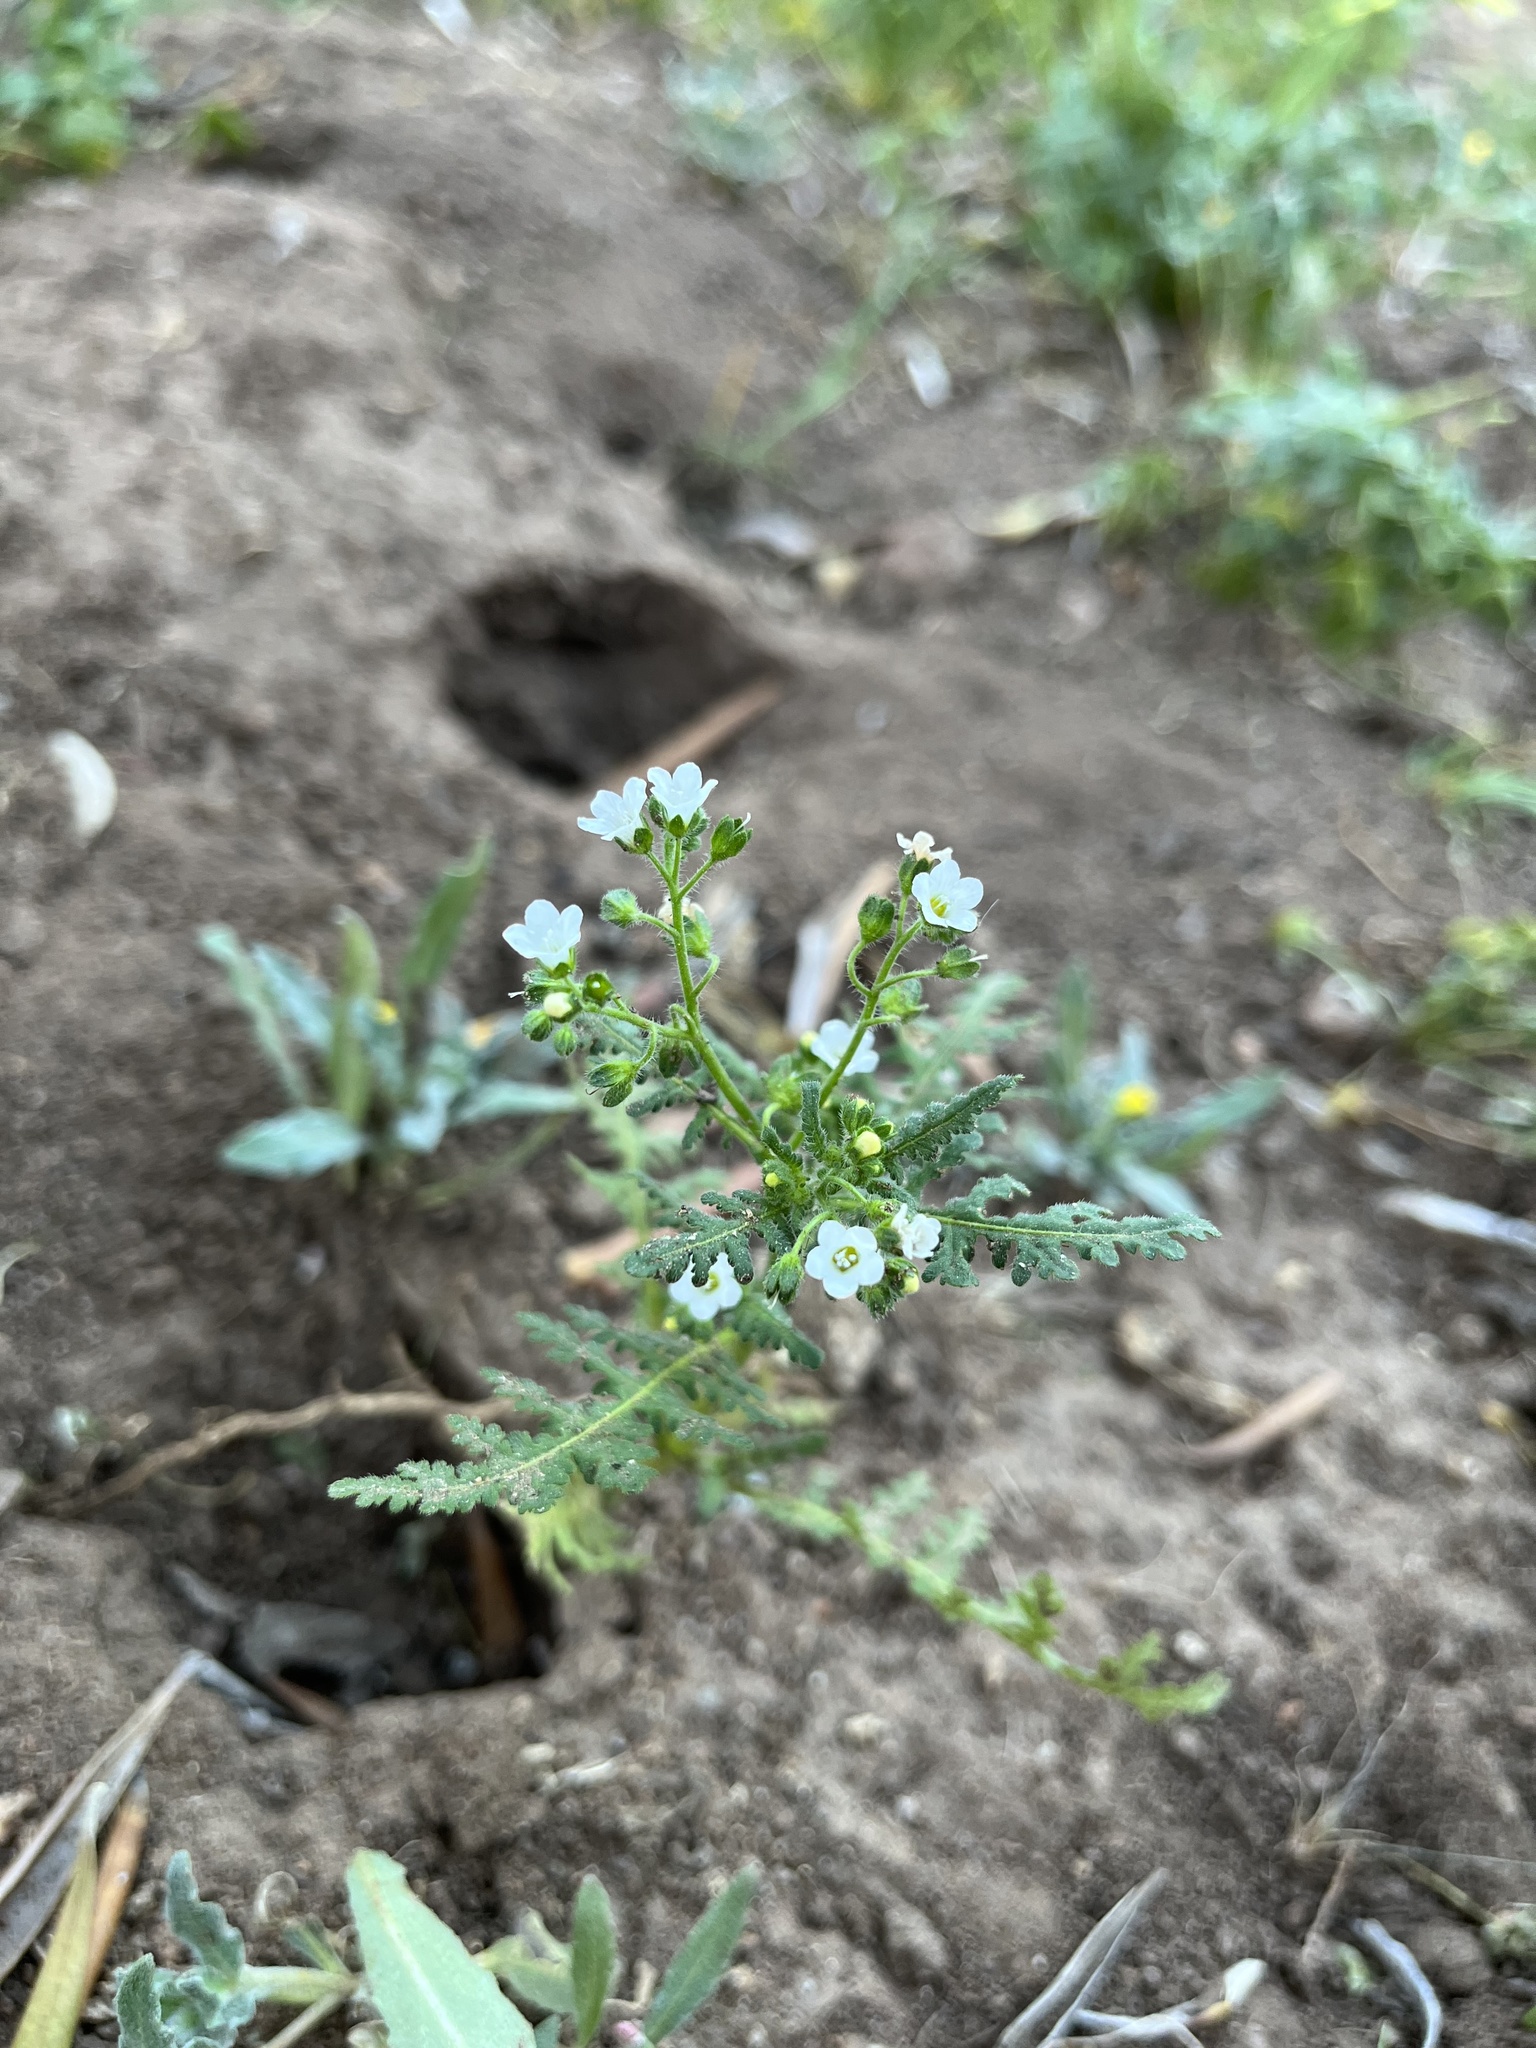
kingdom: Plantae
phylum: Tracheophyta
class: Magnoliopsida
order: Boraginales
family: Hydrophyllaceae
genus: Eucrypta
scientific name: Eucrypta chrysanthemifolia
